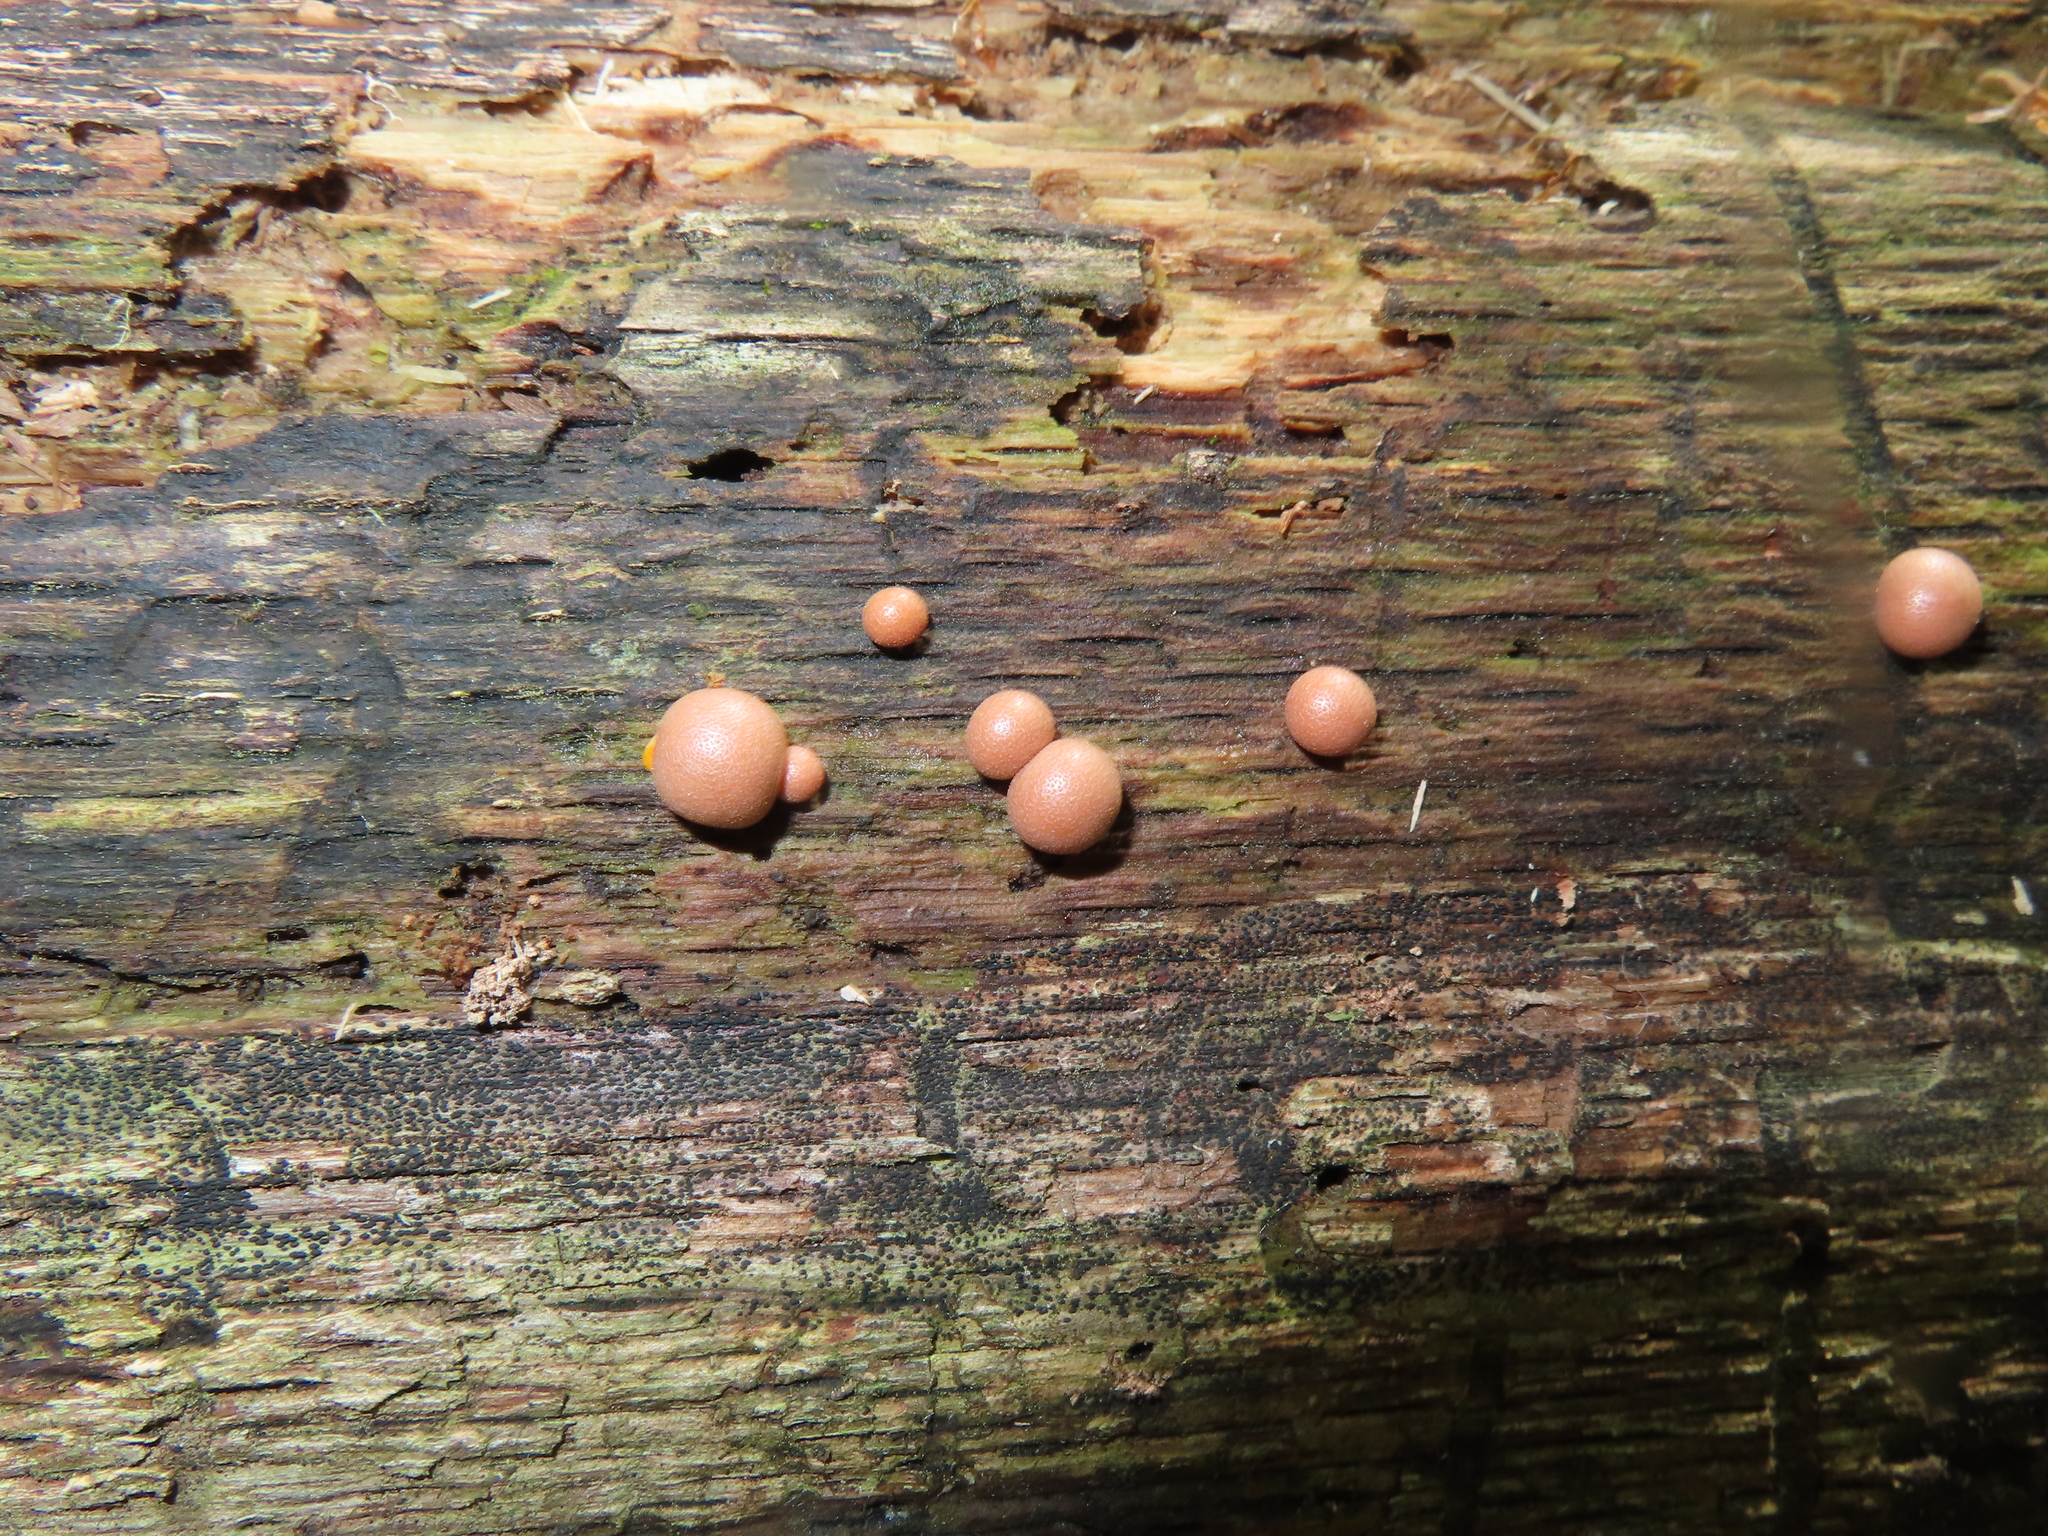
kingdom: Protozoa
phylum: Mycetozoa
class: Myxomycetes
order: Cribrariales
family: Tubiferaceae
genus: Lycogala
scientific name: Lycogala epidendrum
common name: Wolf's milk
